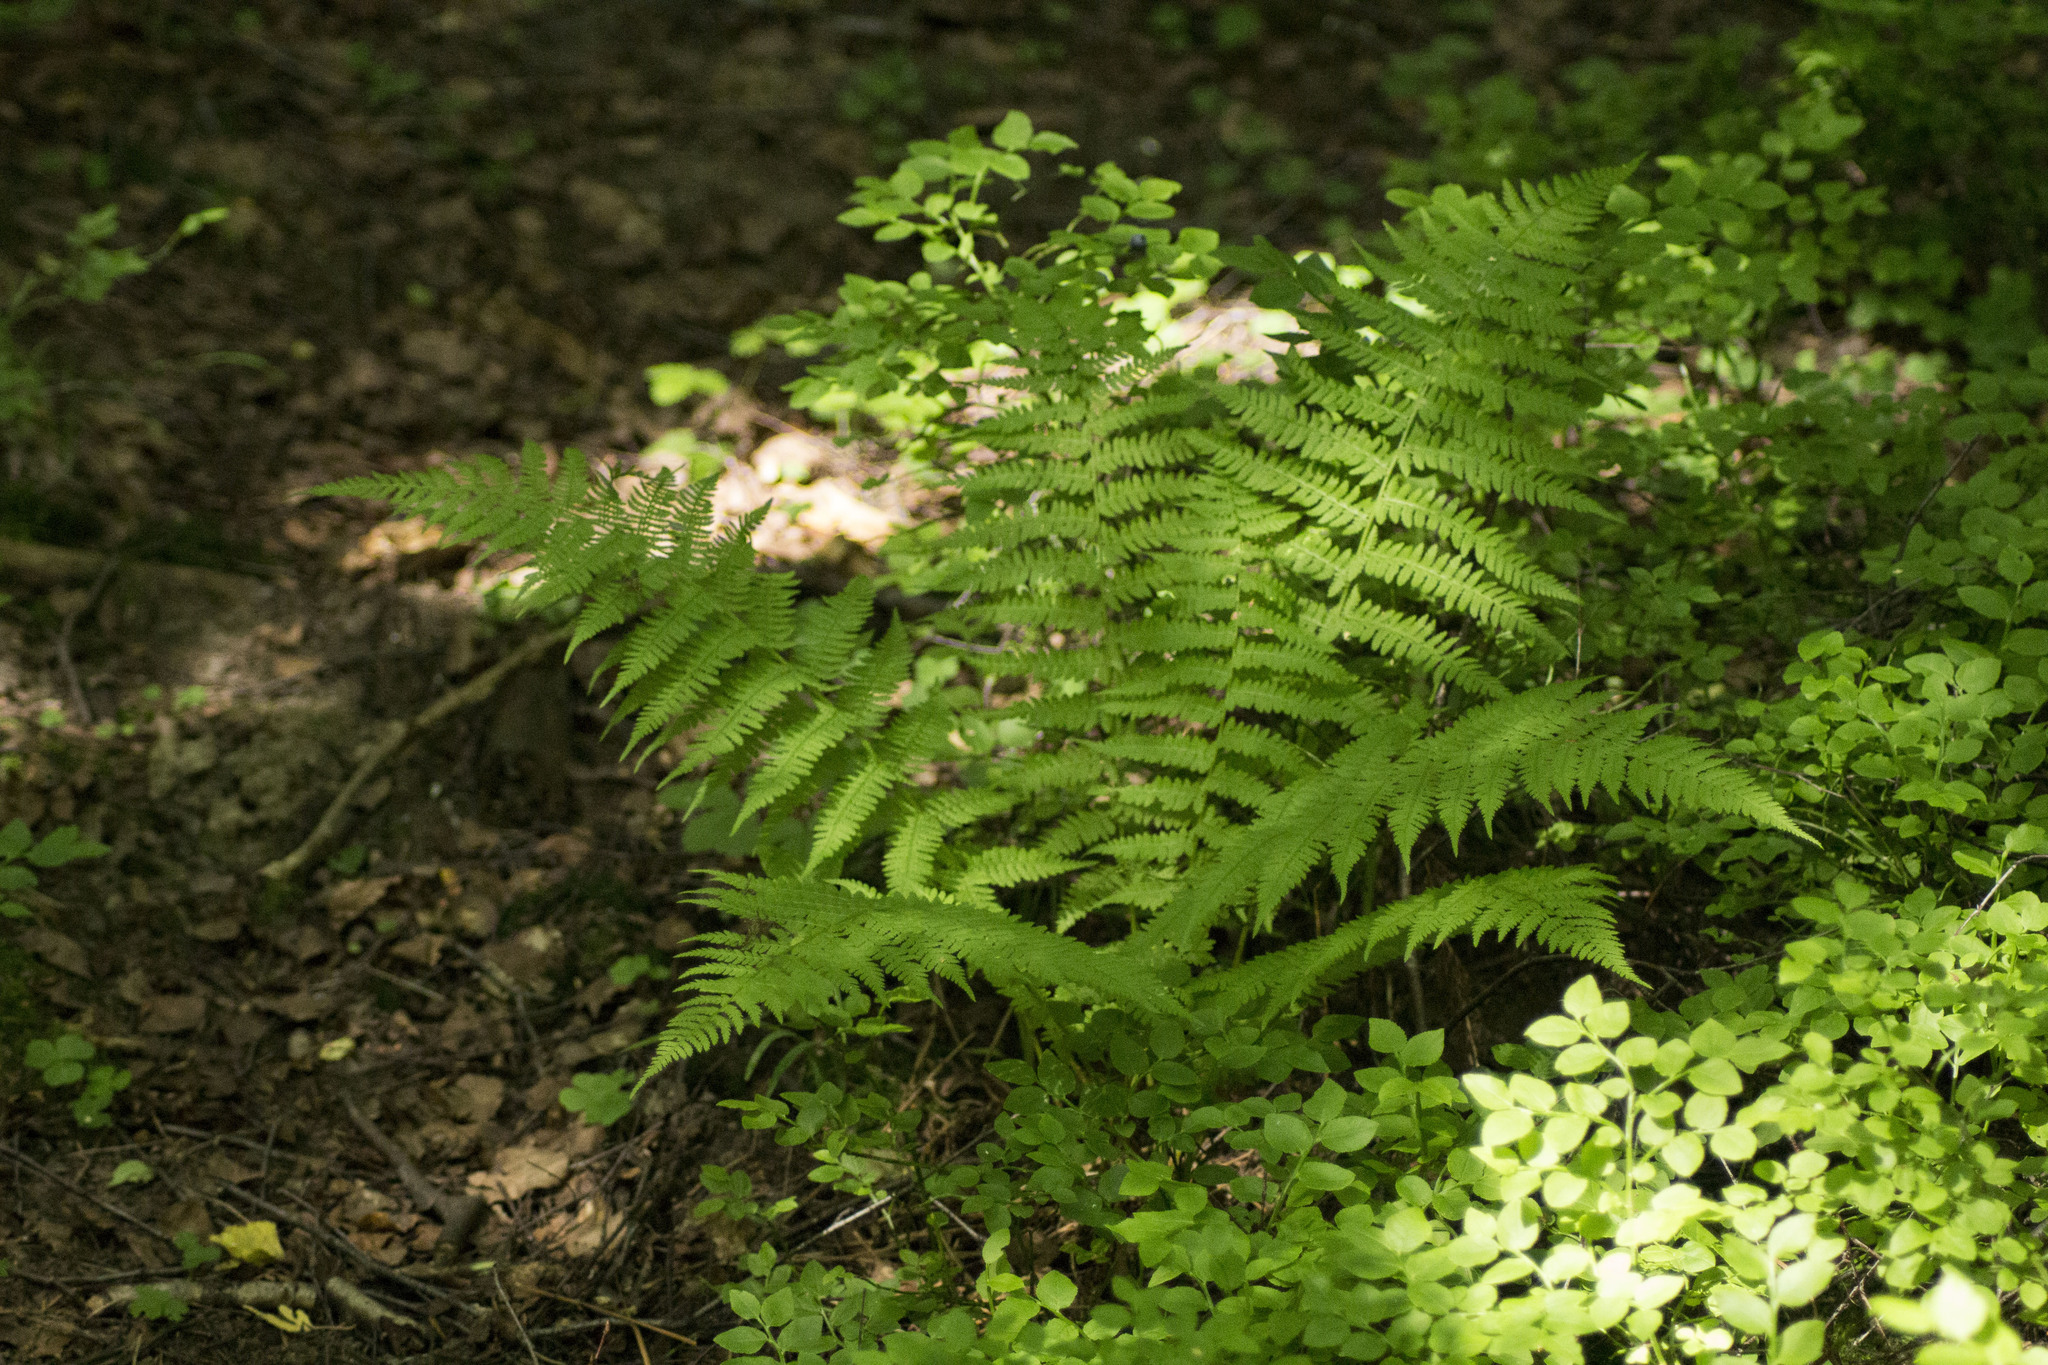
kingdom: Plantae
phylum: Tracheophyta
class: Polypodiopsida
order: Polypodiales
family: Athyriaceae
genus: Athyrium
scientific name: Athyrium filix-femina
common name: Lady fern
